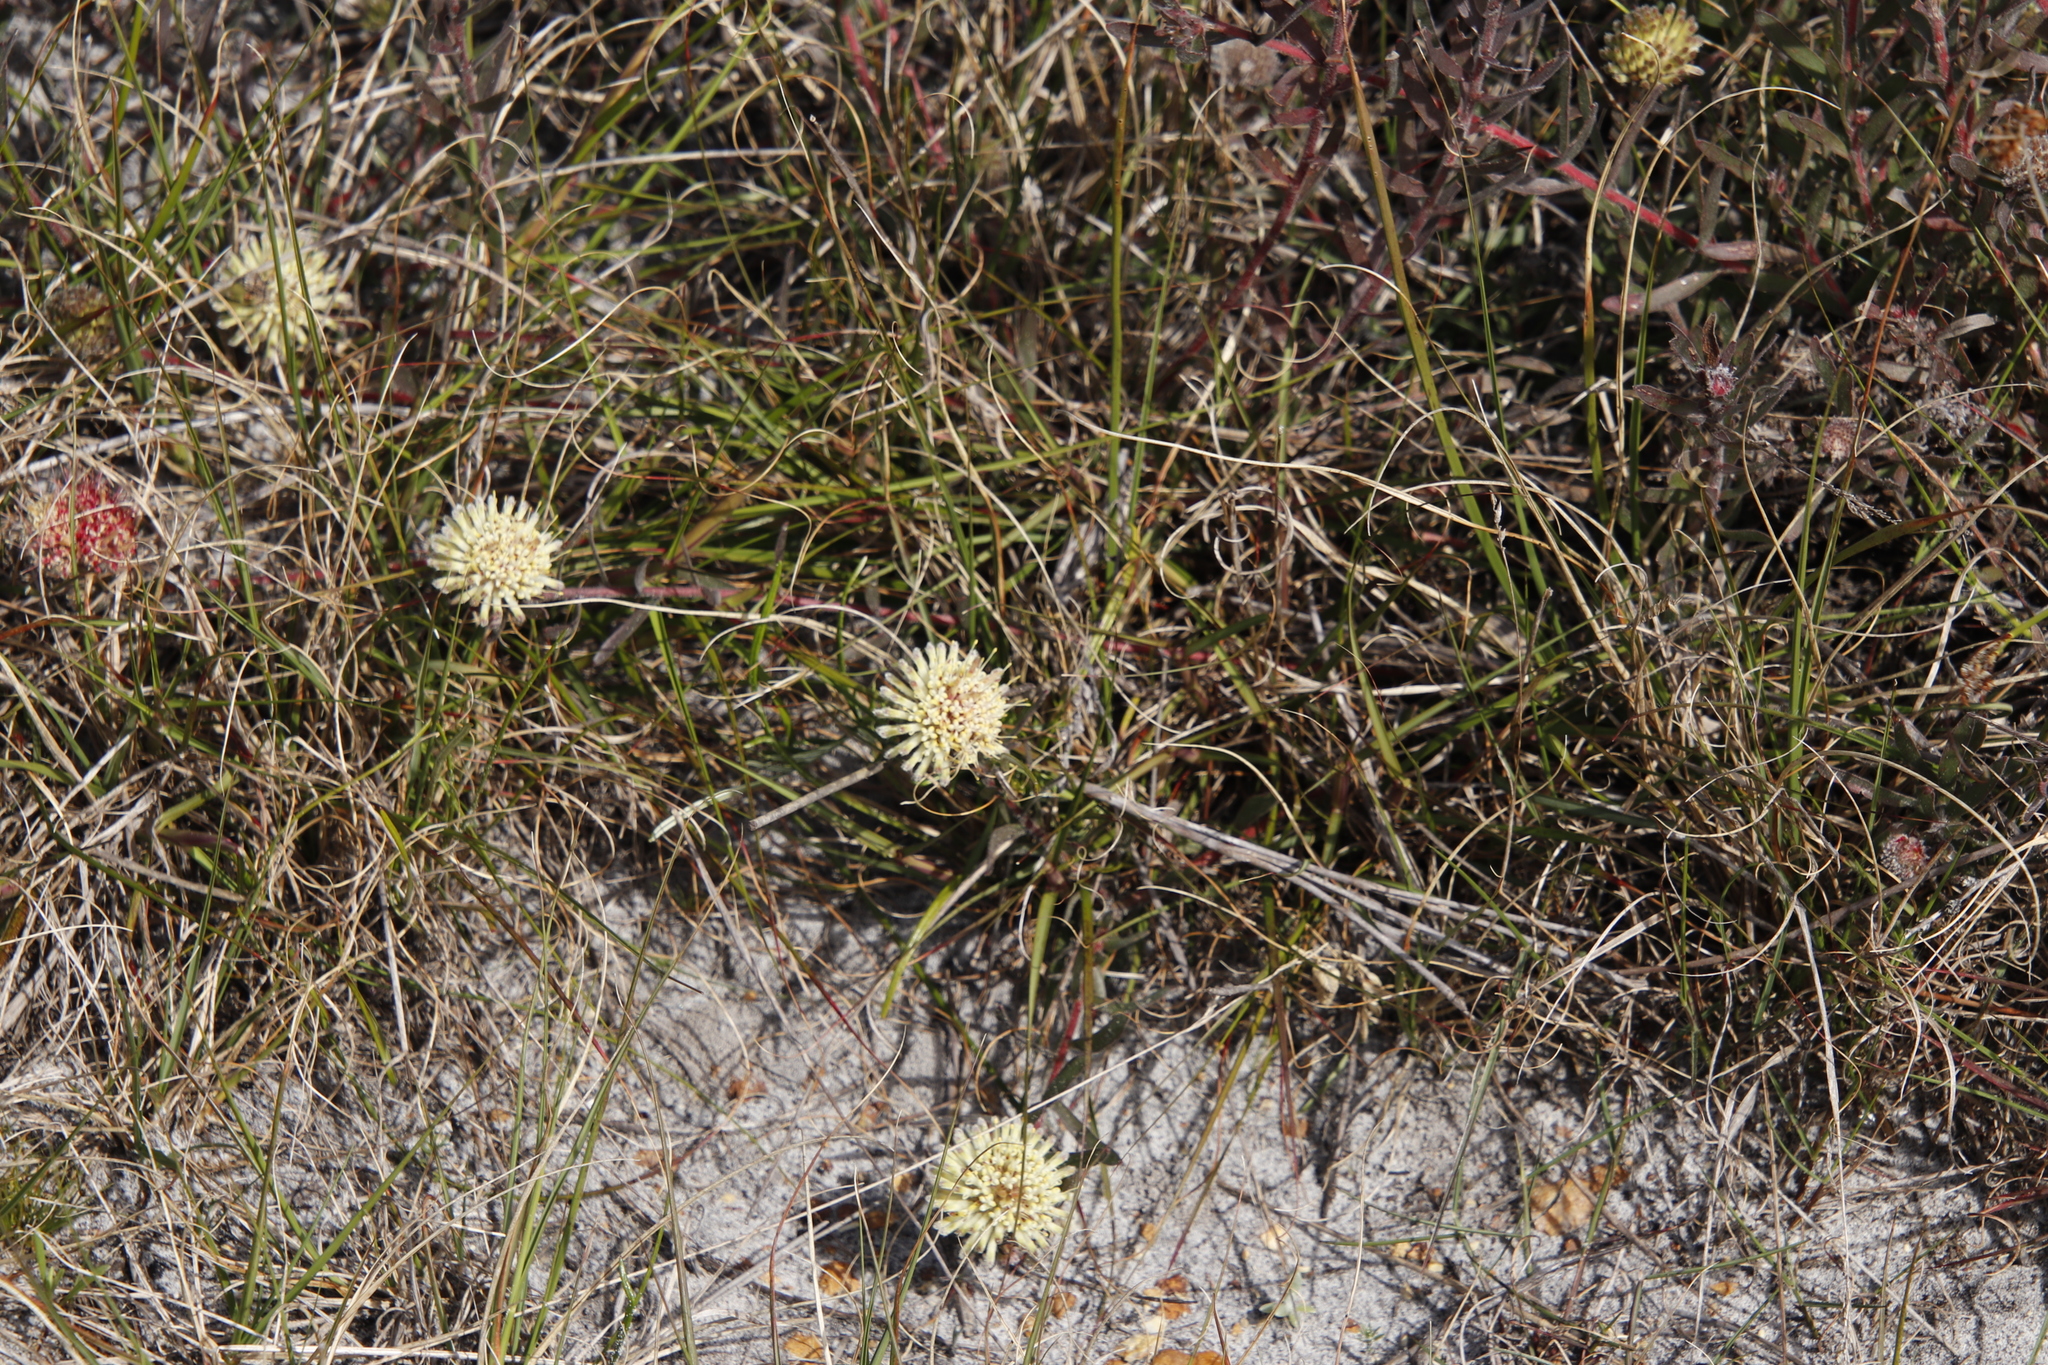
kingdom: Plantae
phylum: Tracheophyta
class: Magnoliopsida
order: Proteales
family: Proteaceae
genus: Leucospermum
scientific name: Leucospermum pedunculatum
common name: White-trailing pincushion
